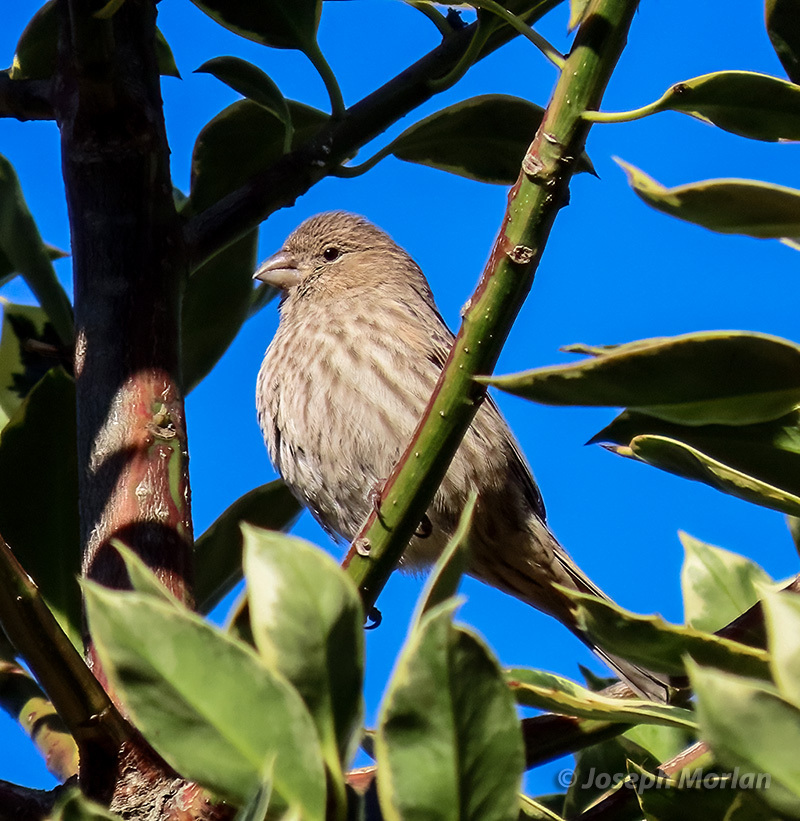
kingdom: Animalia
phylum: Chordata
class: Aves
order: Passeriformes
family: Fringillidae
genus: Haemorhous
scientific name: Haemorhous mexicanus
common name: House finch
